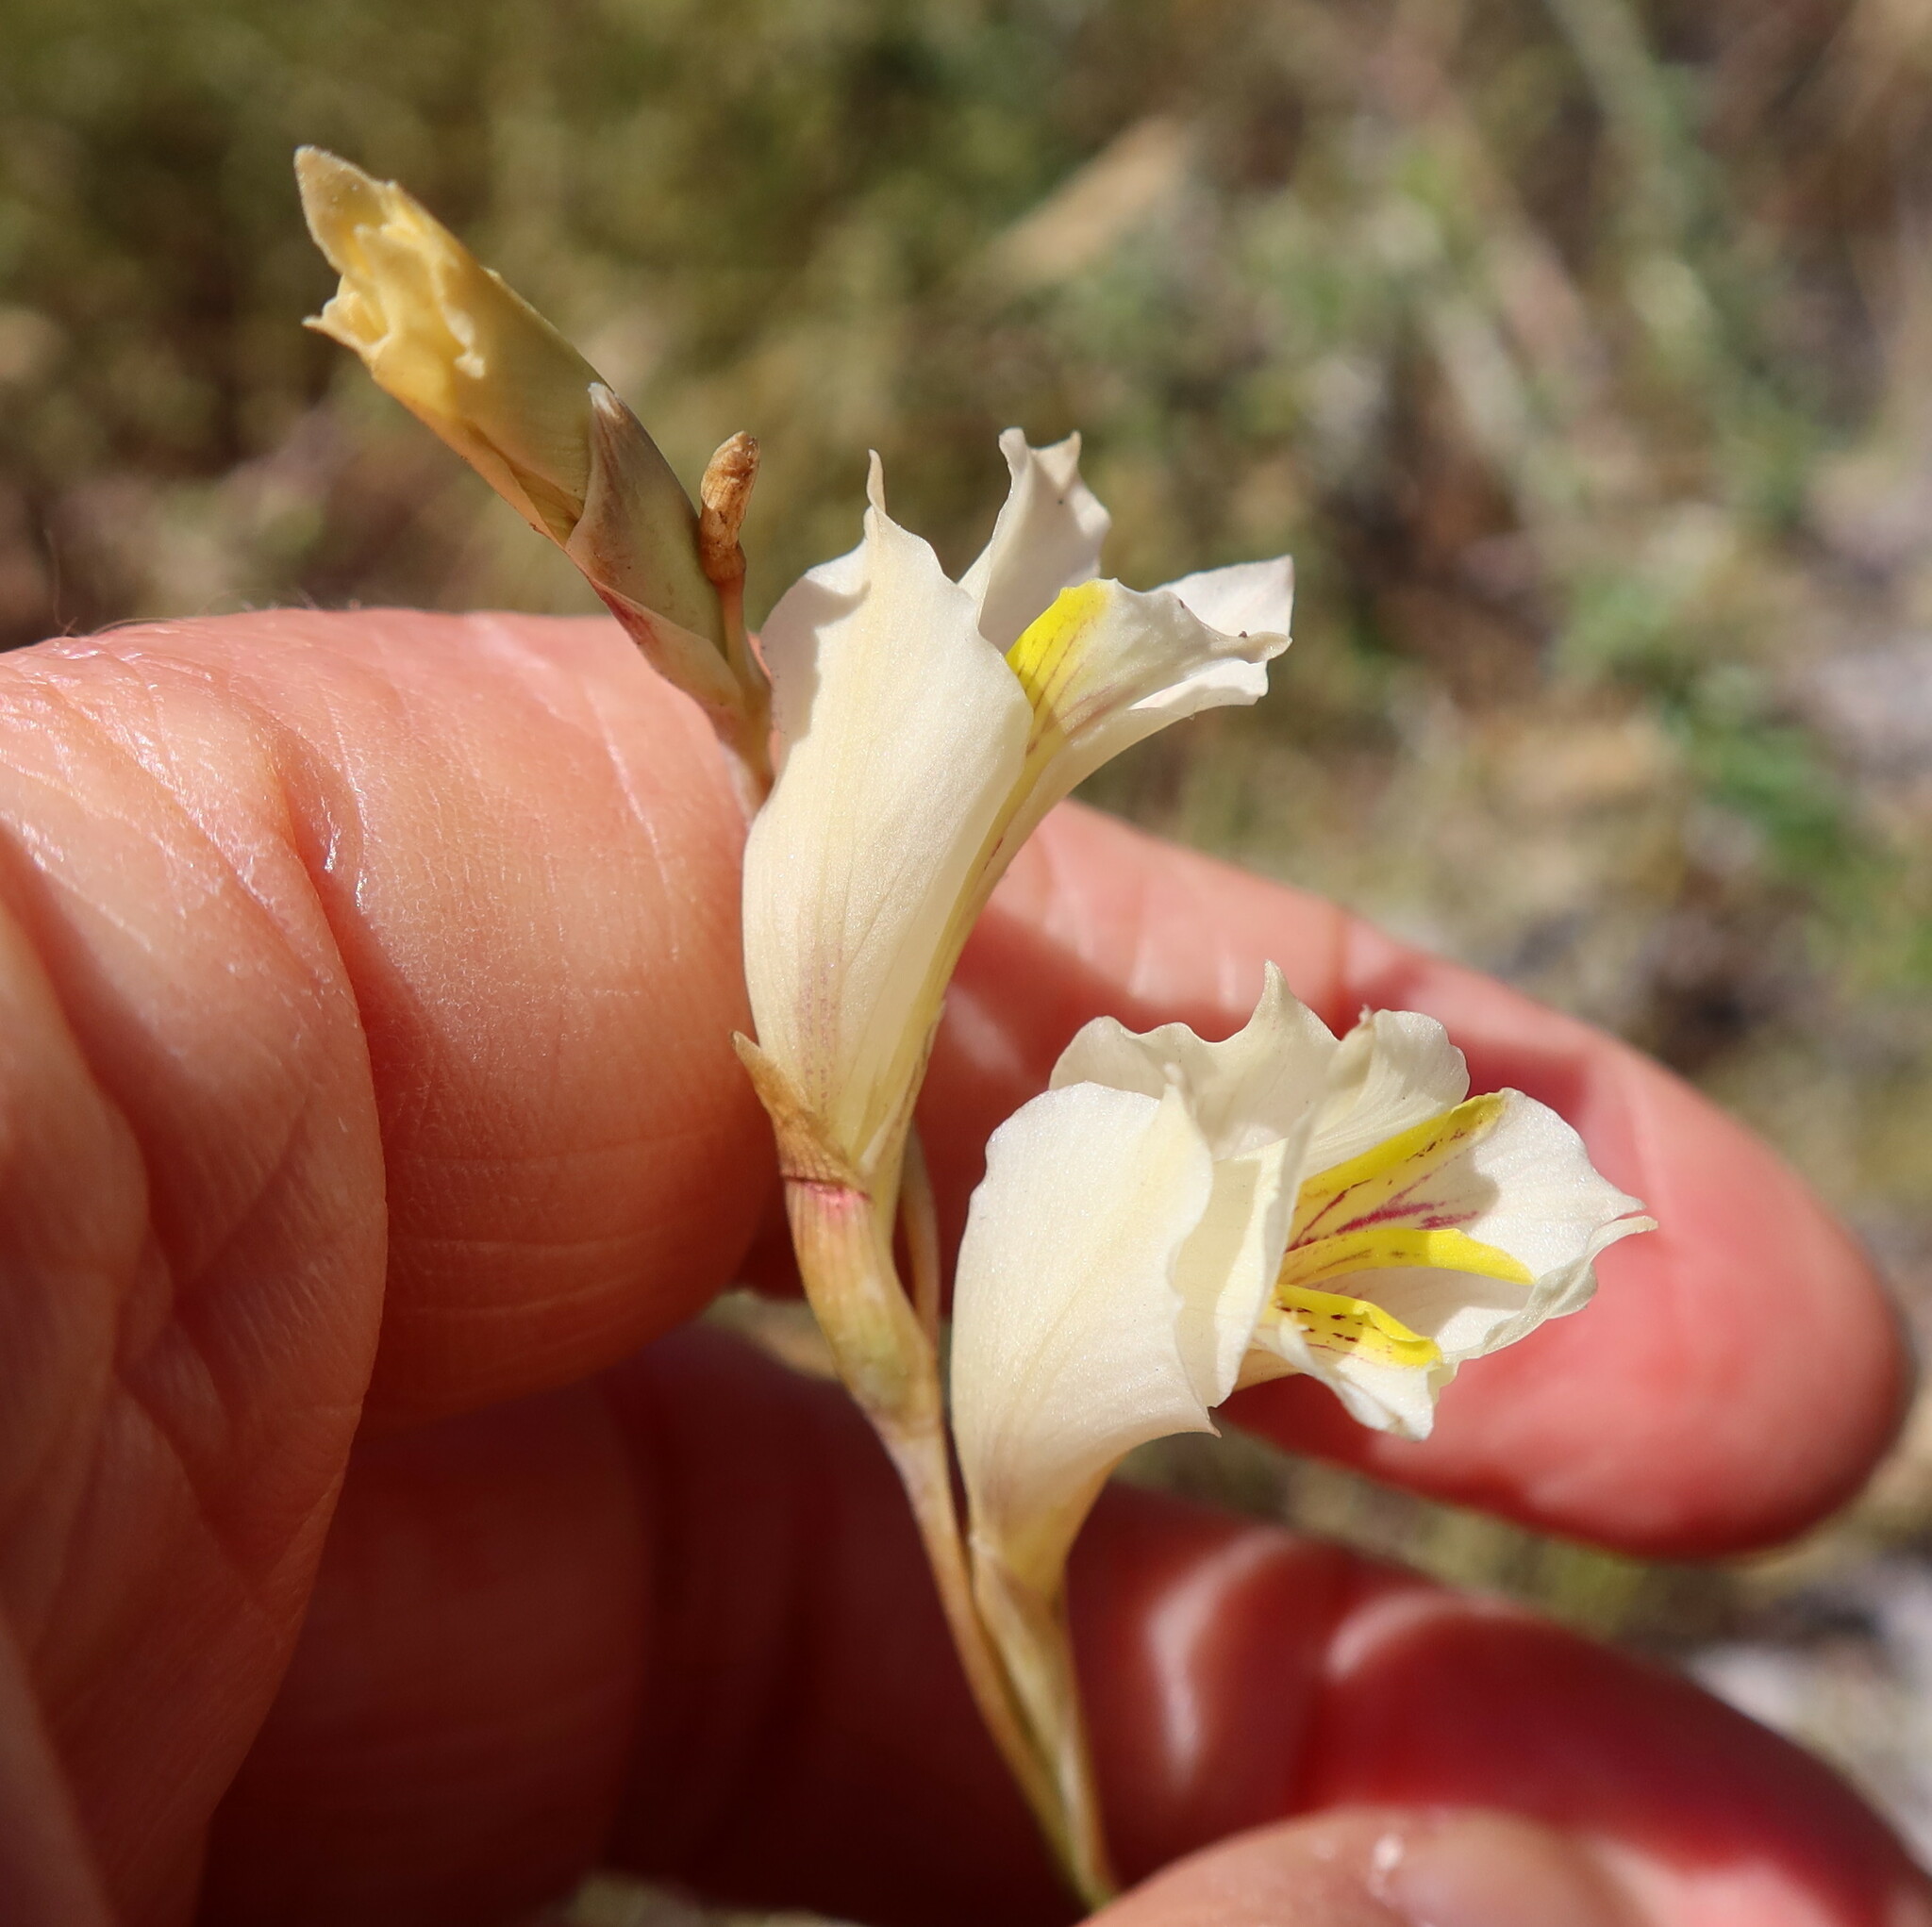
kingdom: Plantae
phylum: Tracheophyta
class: Liliopsida
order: Asparagales
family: Iridaceae
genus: Gladiolus
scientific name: Gladiolus jonquilodorus
